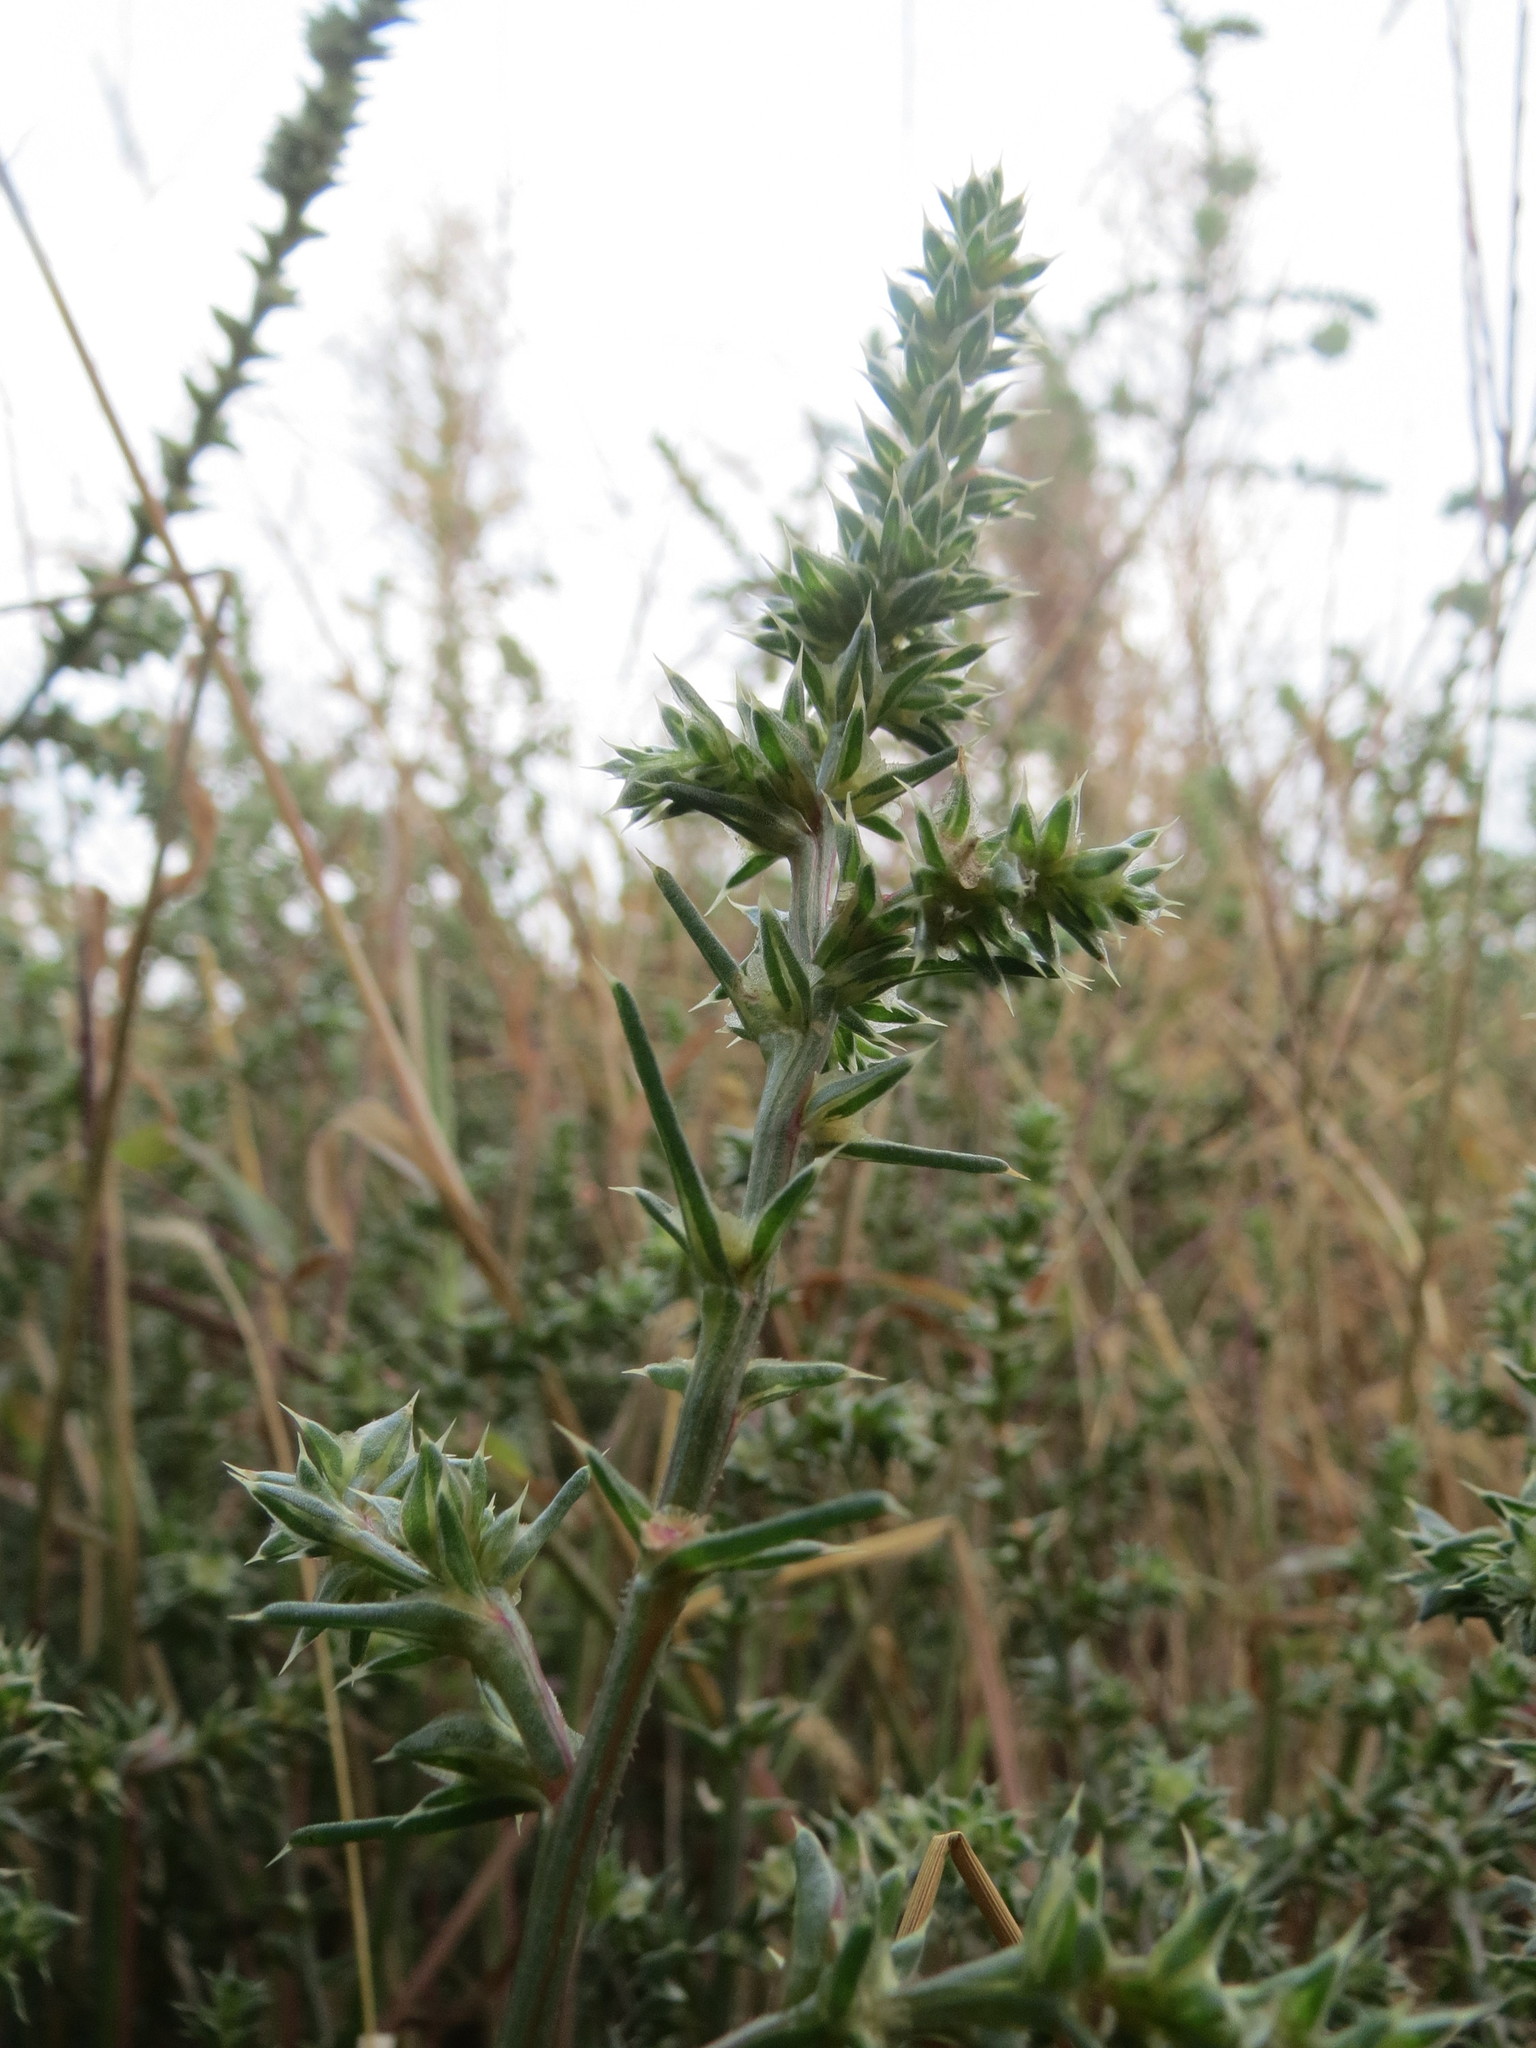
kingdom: Plantae
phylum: Tracheophyta
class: Magnoliopsida
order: Caryophyllales
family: Amaranthaceae
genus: Salsola
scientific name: Salsola tragus
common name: Prickly russian thistle
